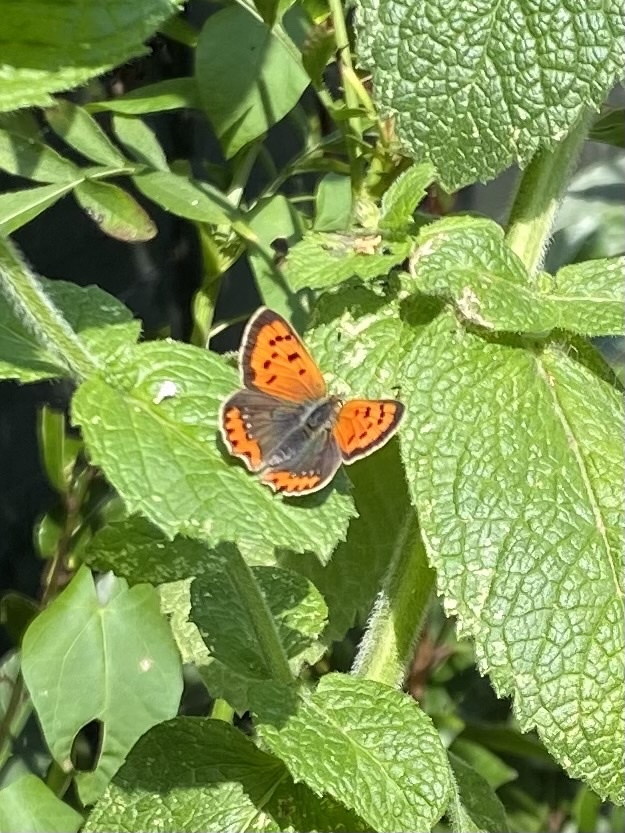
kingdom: Animalia
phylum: Arthropoda
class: Insecta
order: Lepidoptera
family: Lycaenidae
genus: Lycaena
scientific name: Lycaena phlaeas
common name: Small copper
